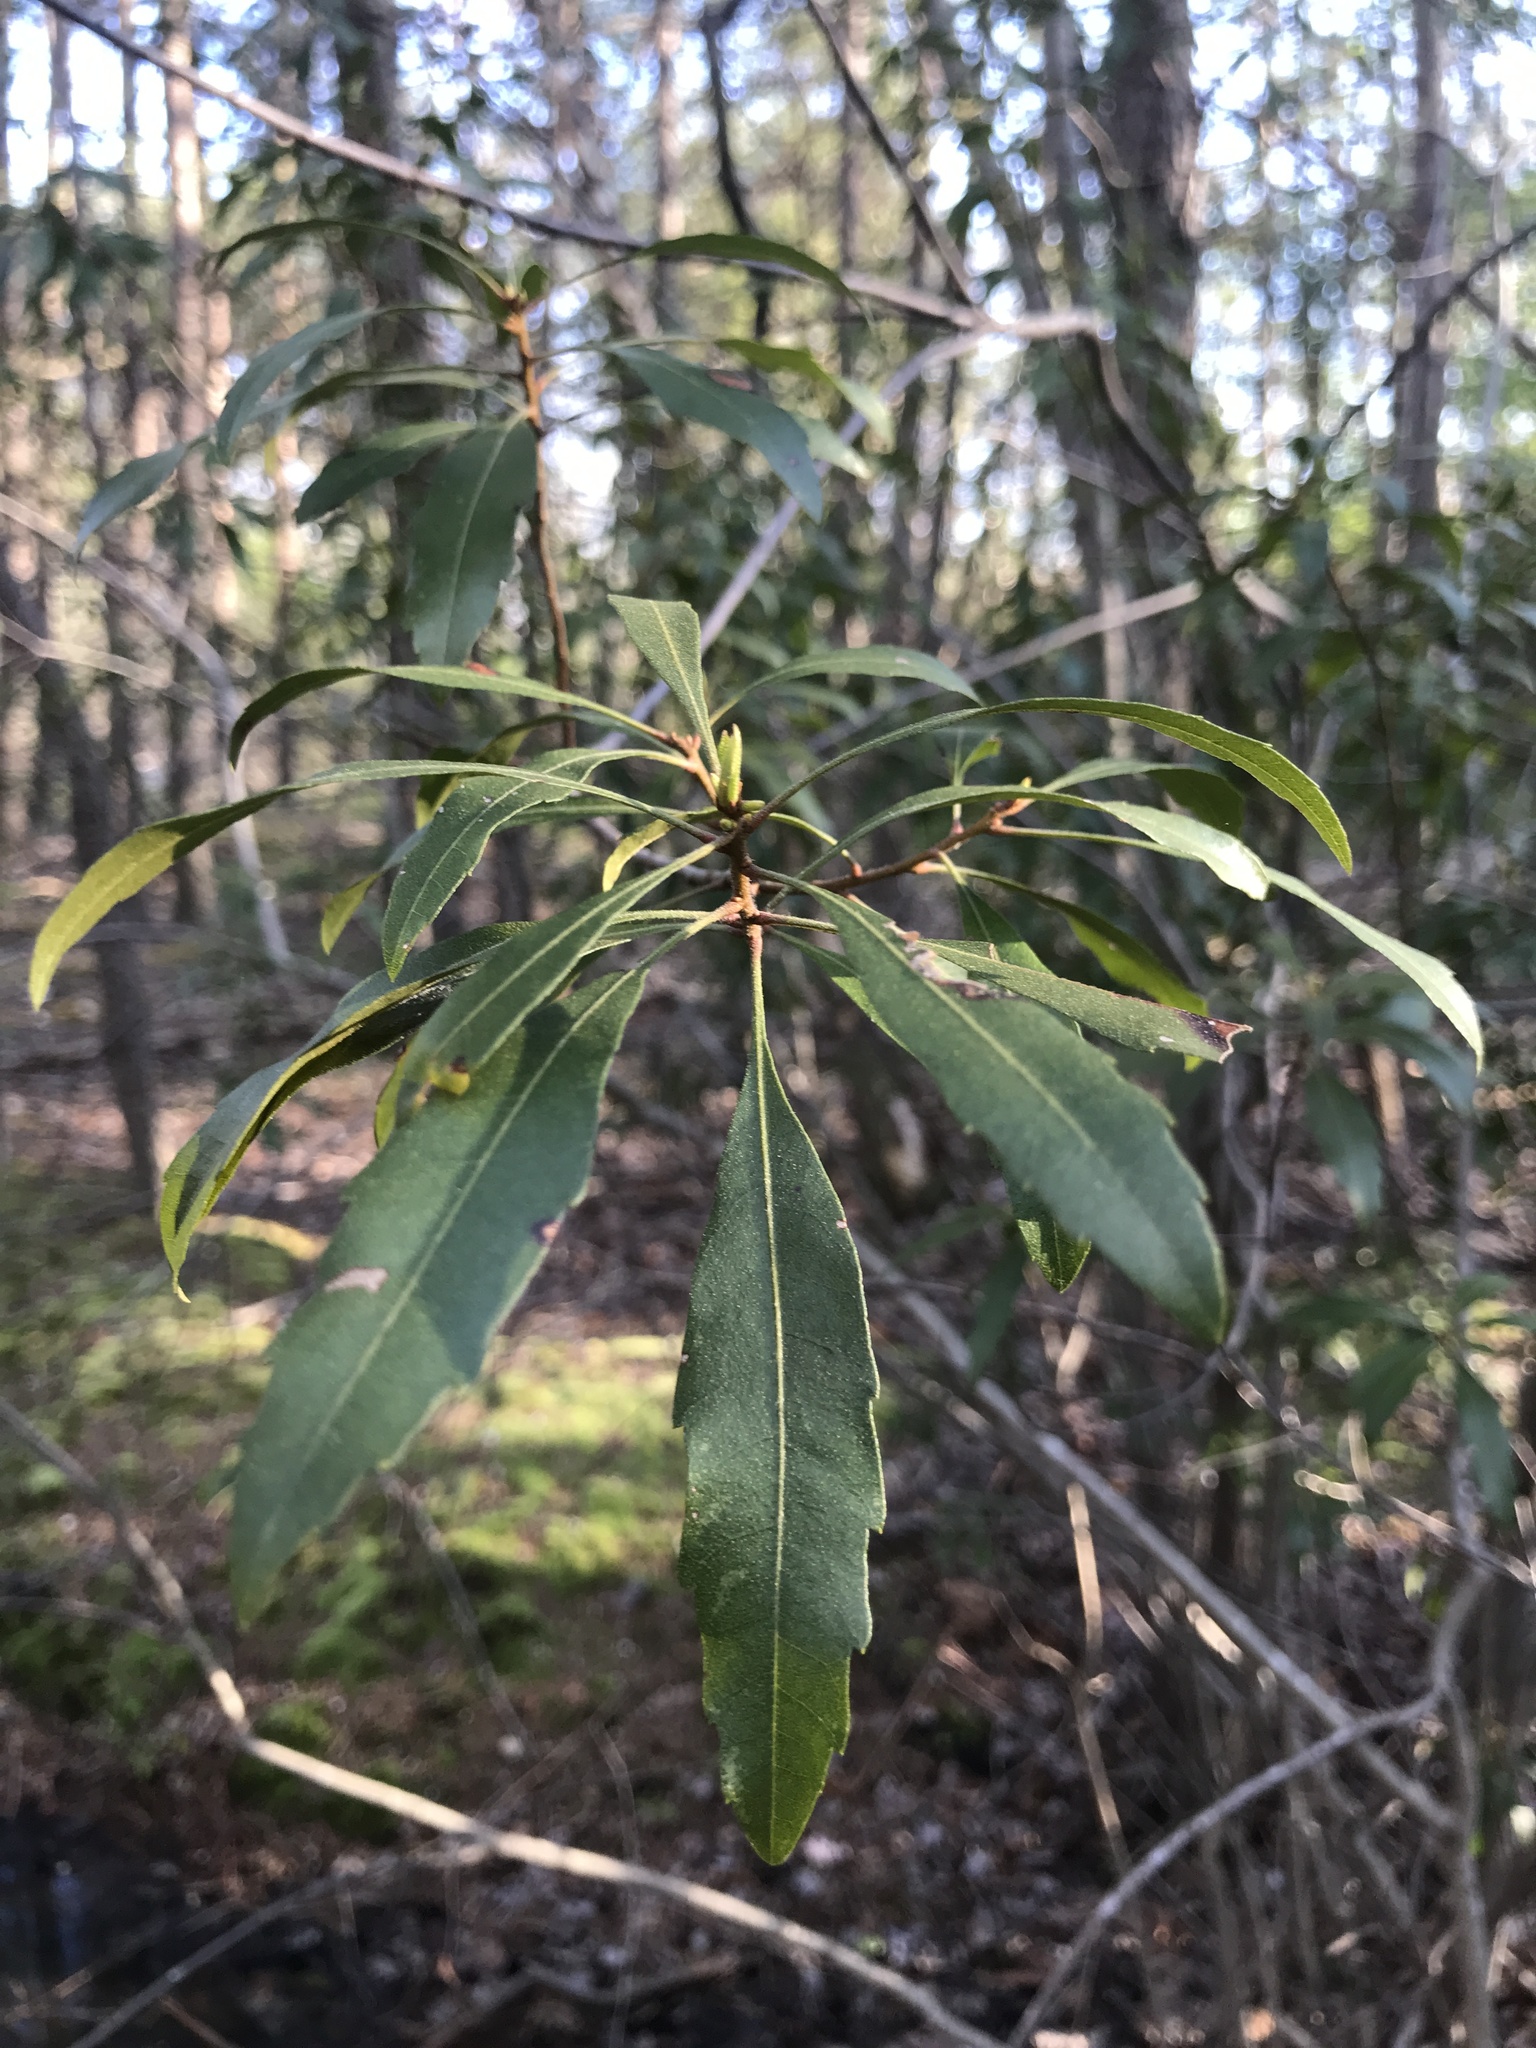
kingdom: Plantae
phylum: Tracheophyta
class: Magnoliopsida
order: Fagales
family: Myricaceae
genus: Morella
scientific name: Morella cerifera
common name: Wax myrtle
